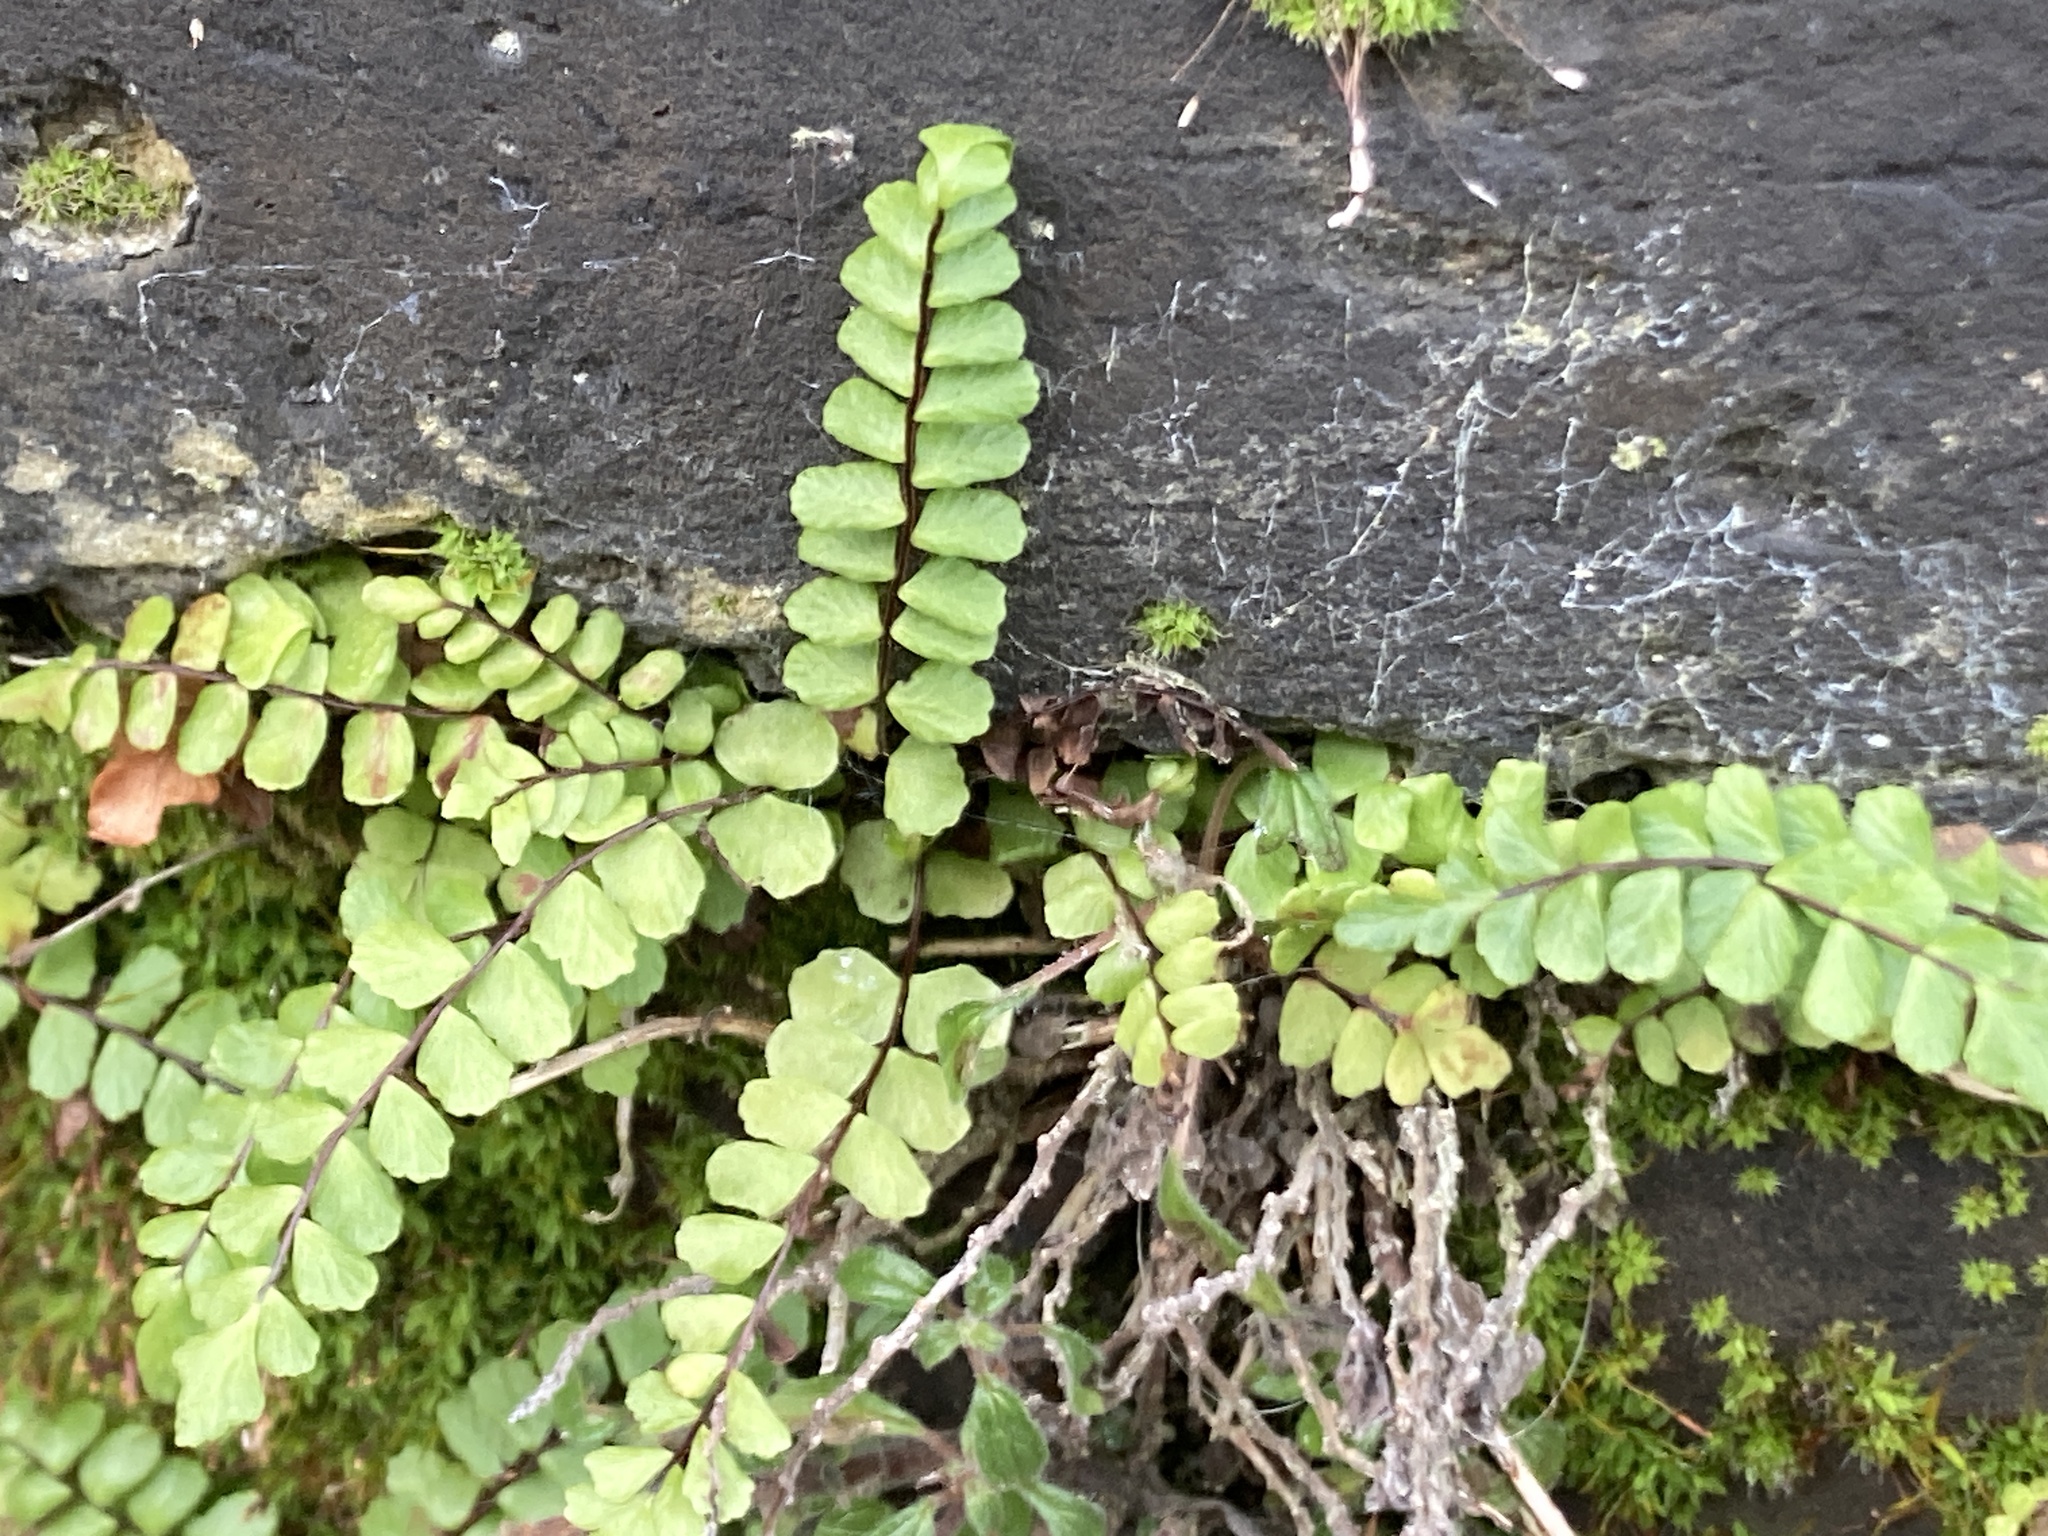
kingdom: Plantae
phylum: Tracheophyta
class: Polypodiopsida
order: Polypodiales
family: Aspleniaceae
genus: Asplenium
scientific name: Asplenium trichomanes
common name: Maidenhair spleenwort
